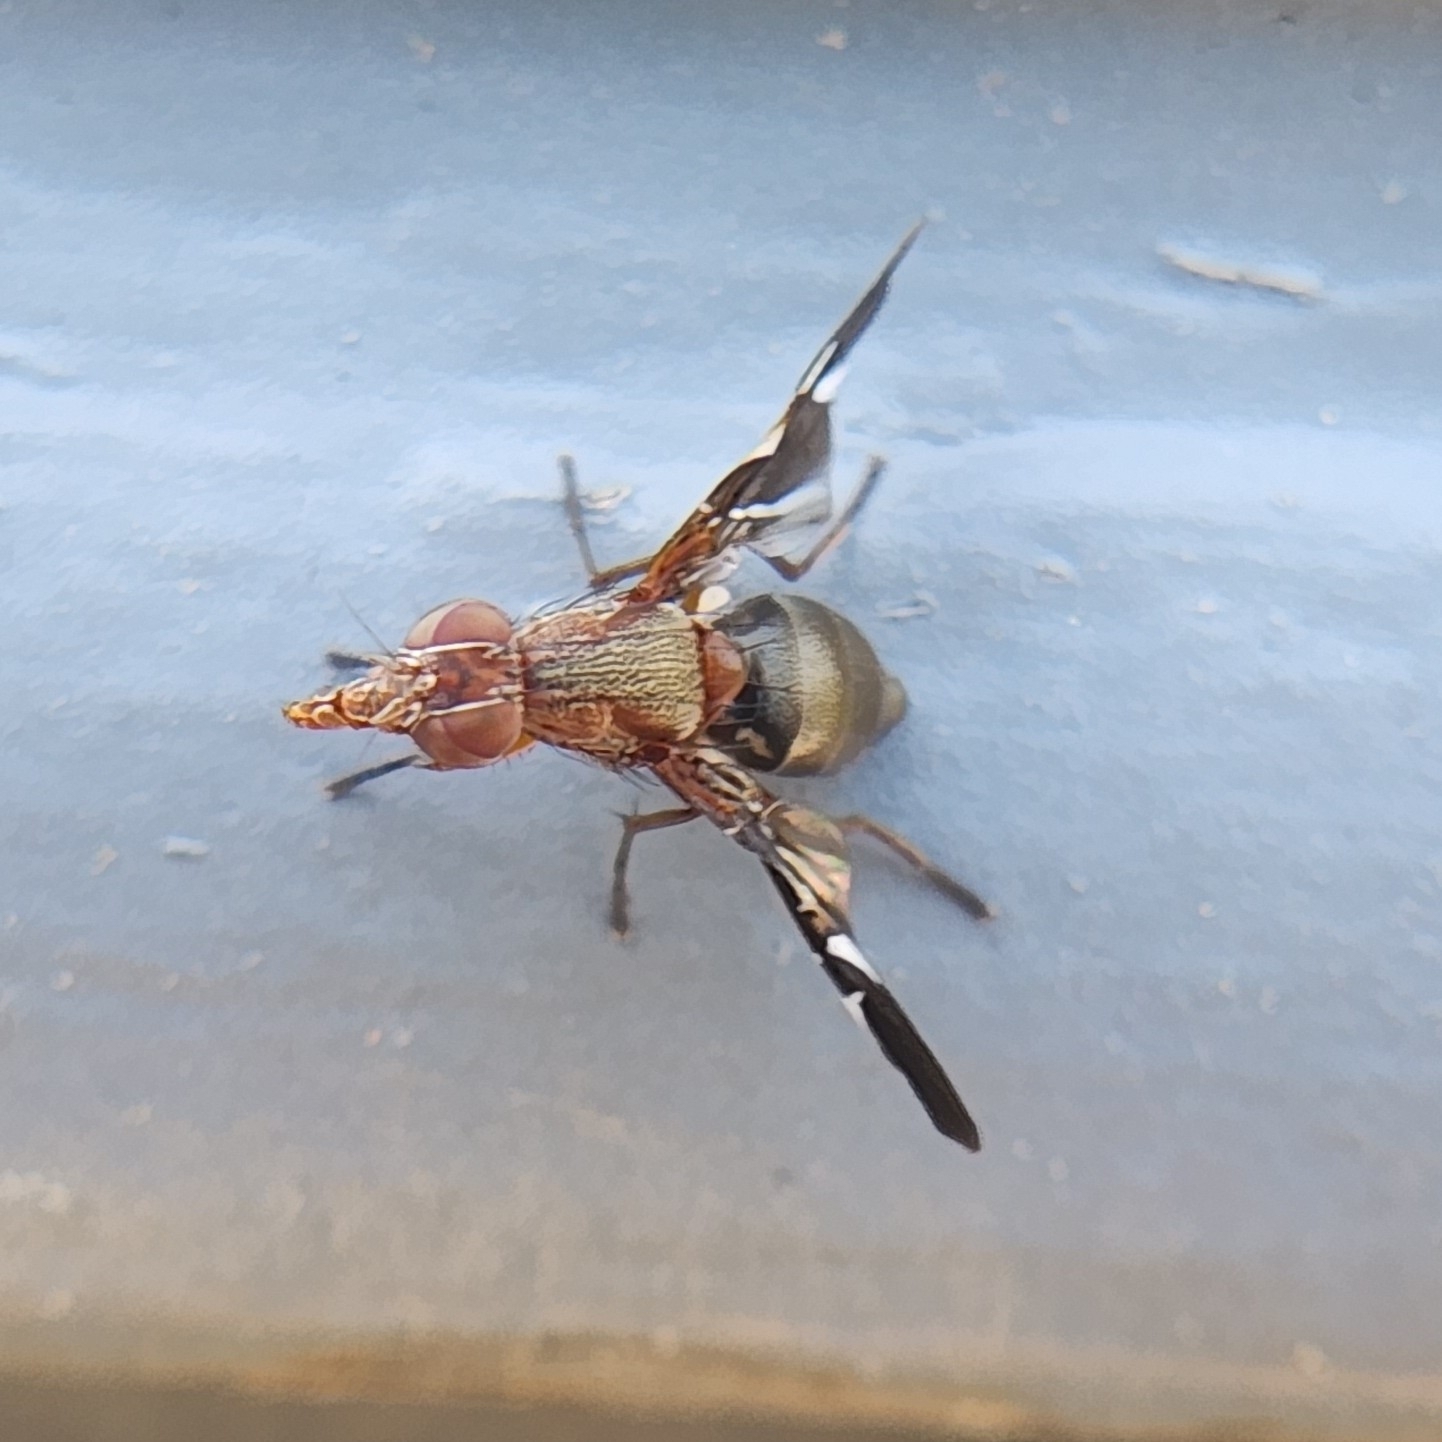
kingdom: Animalia
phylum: Arthropoda
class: Insecta
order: Diptera
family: Ulidiidae
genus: Delphinia
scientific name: Delphinia picta
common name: Common picture-winged fly
